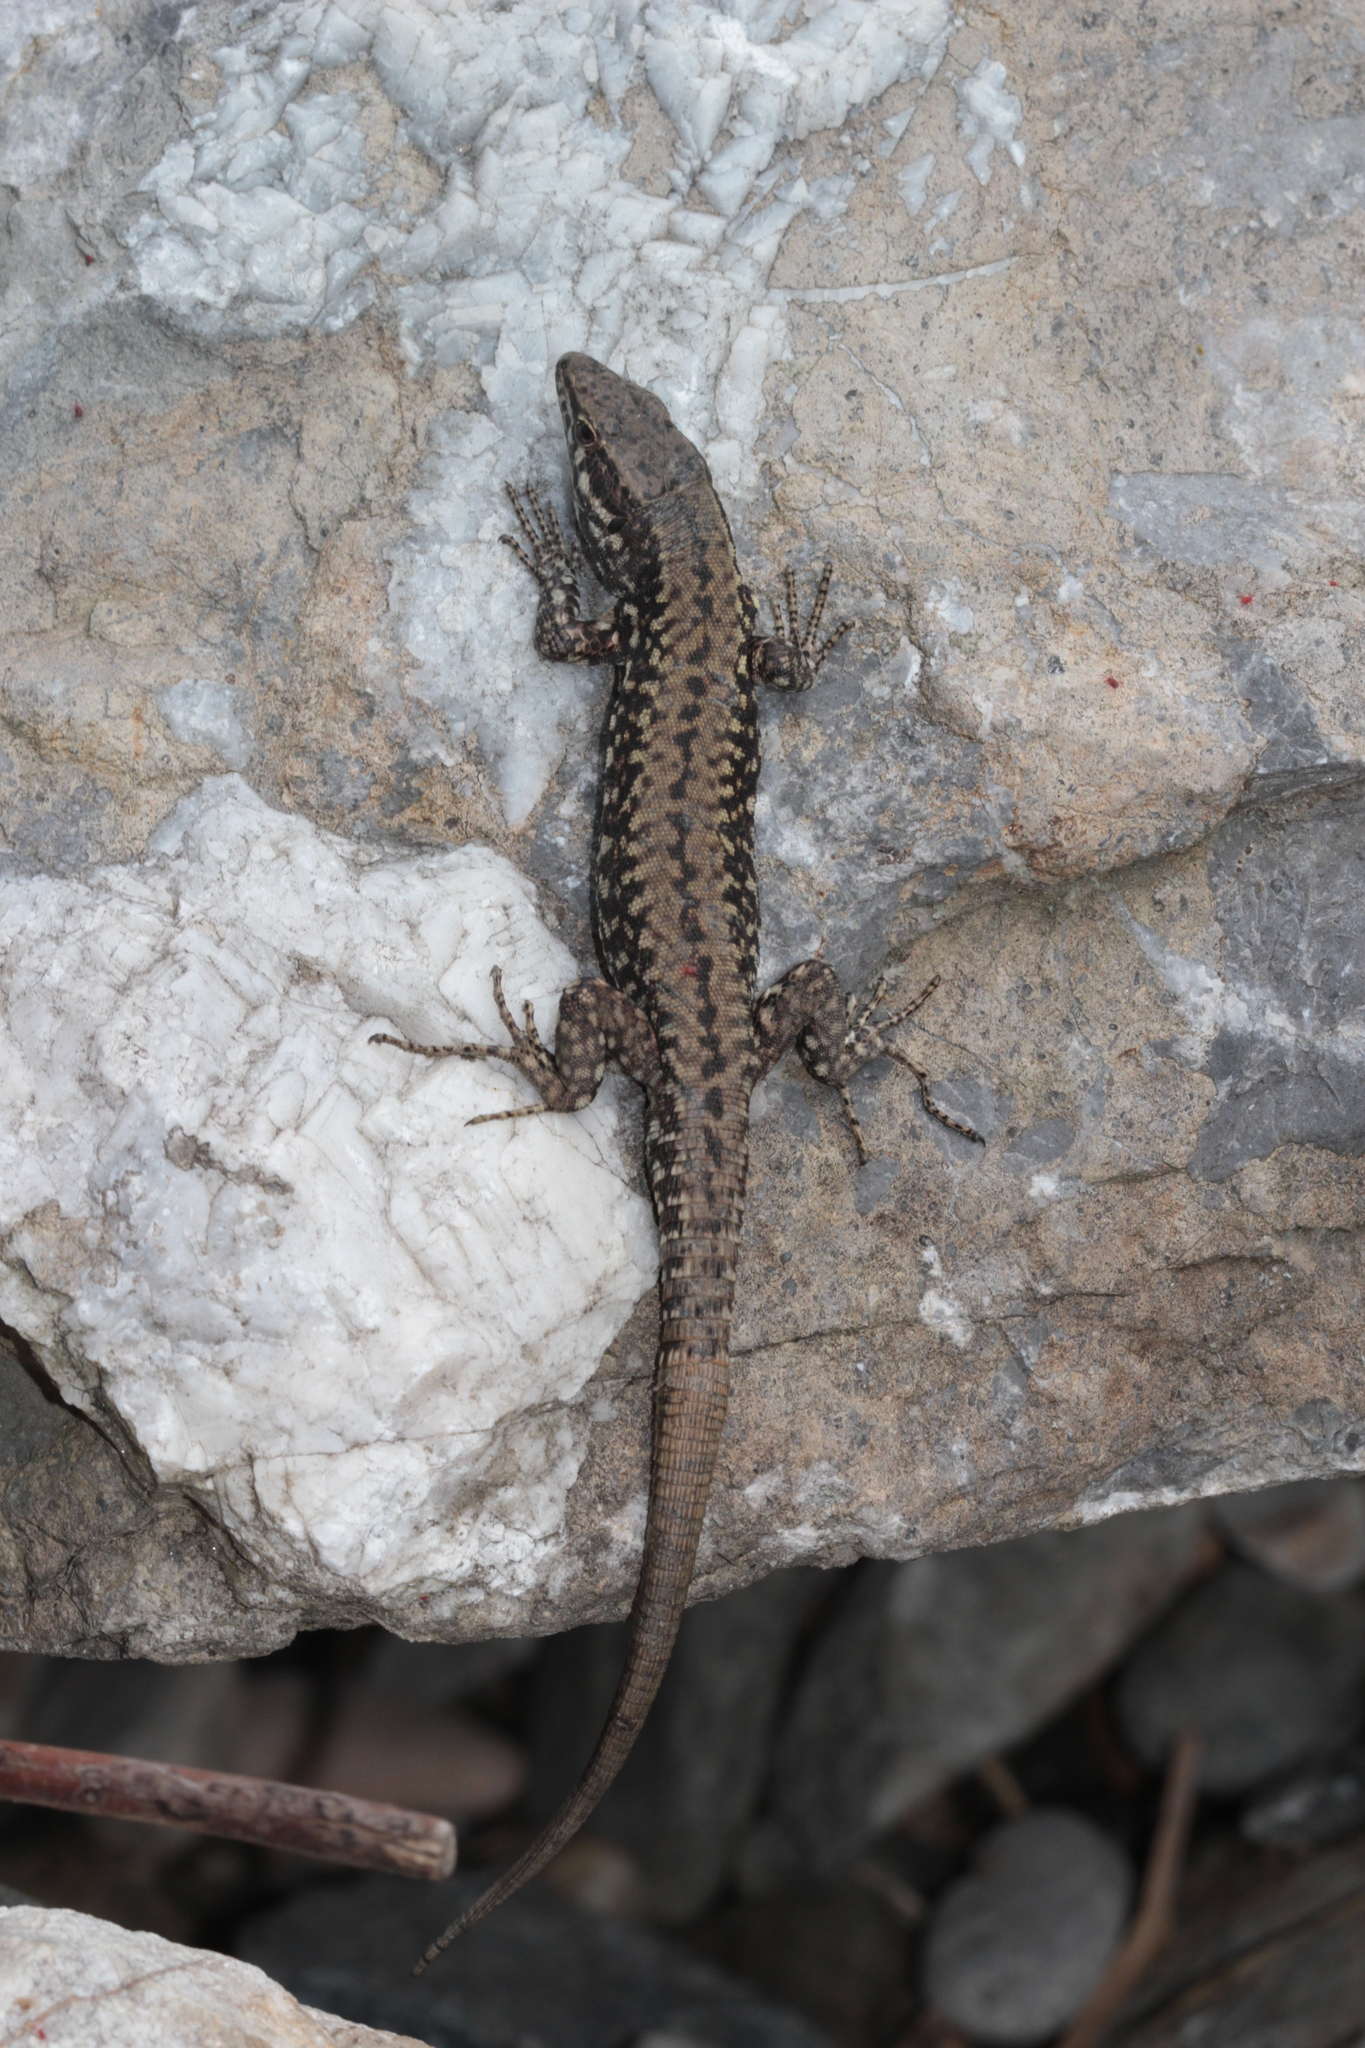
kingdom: Animalia
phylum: Chordata
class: Squamata
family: Lacertidae
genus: Podarcis
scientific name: Podarcis muralis
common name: Common wall lizard
